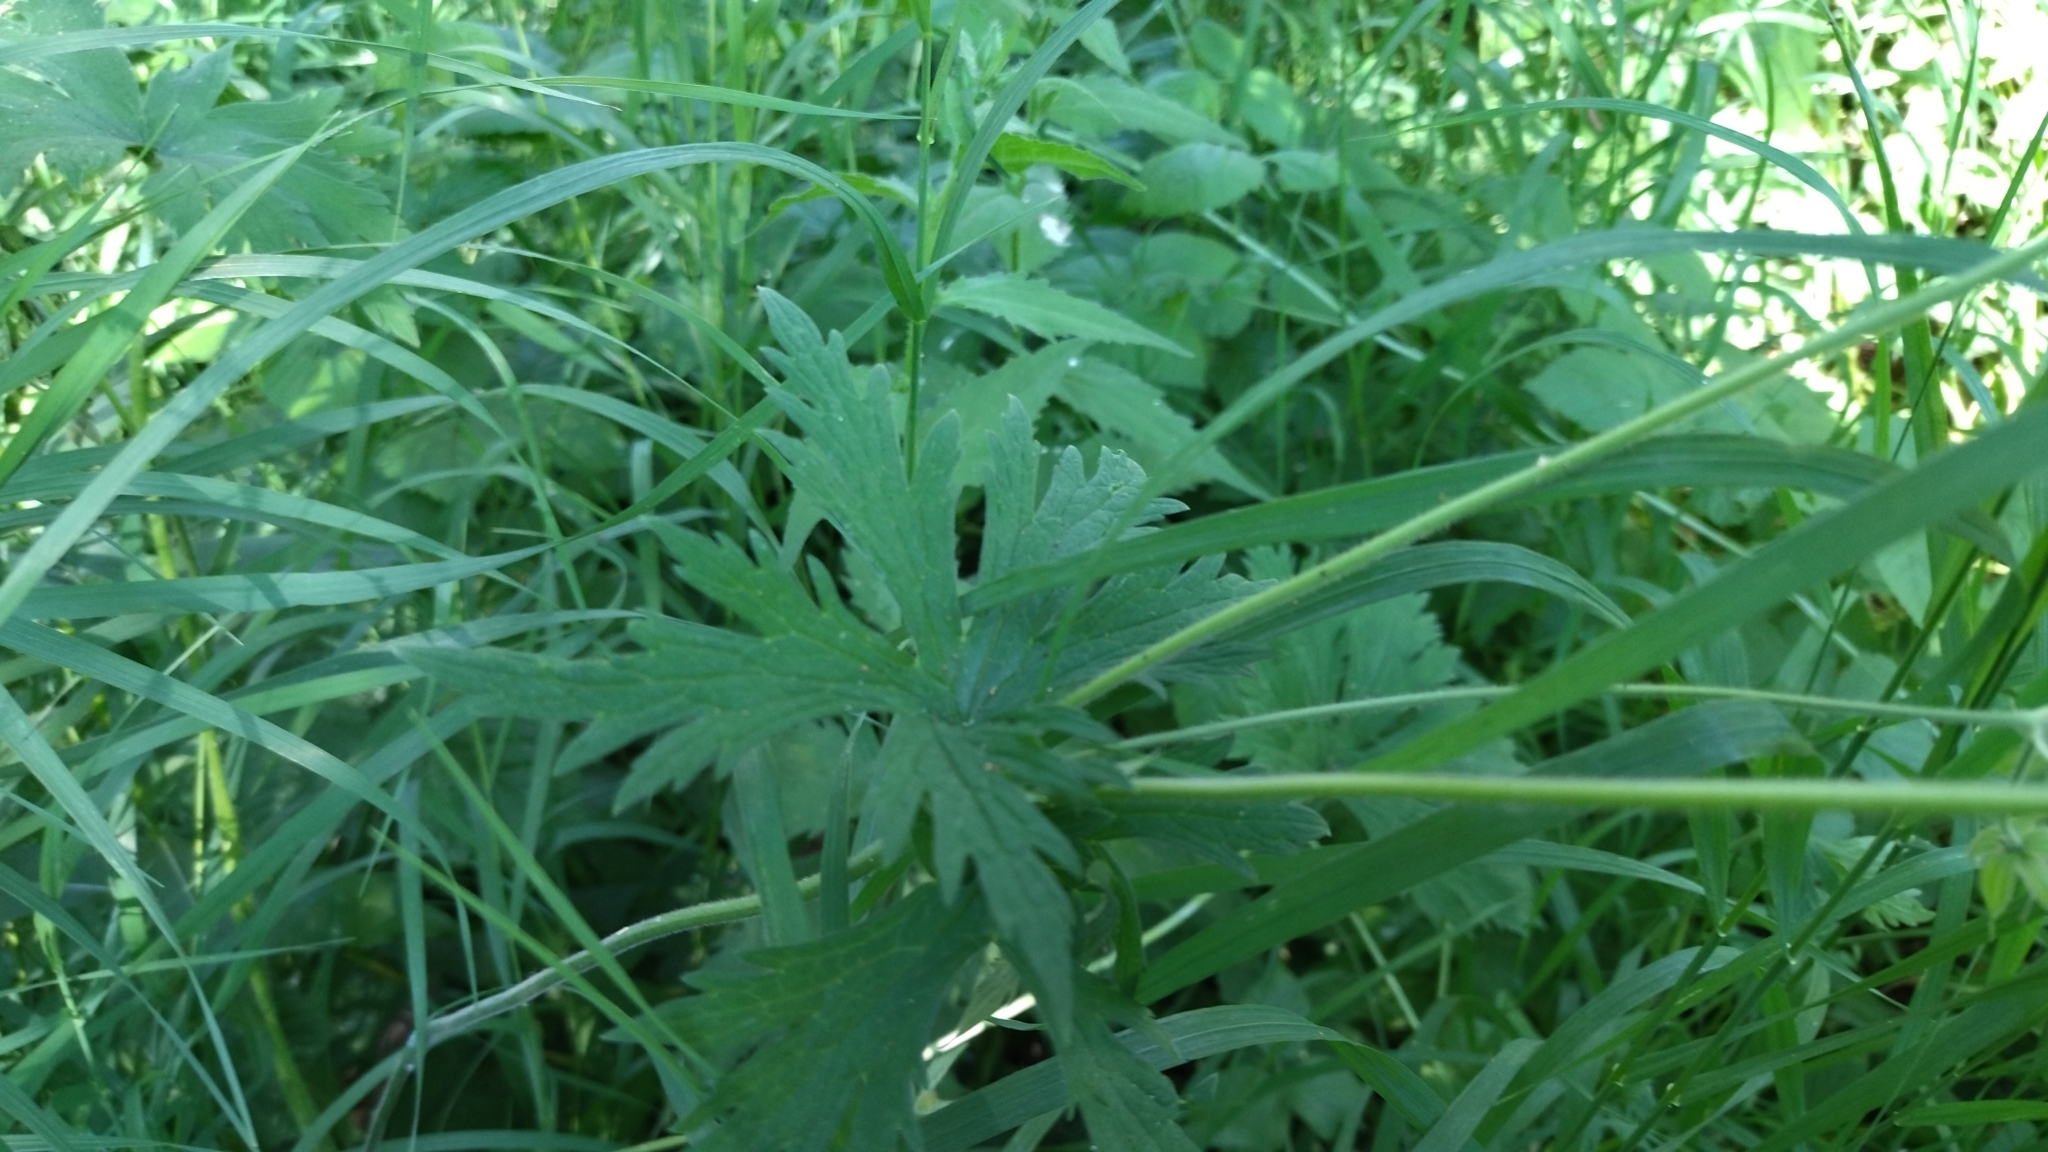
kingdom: Plantae
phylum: Tracheophyta
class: Magnoliopsida
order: Geraniales
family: Geraniaceae
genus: Geranium
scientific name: Geranium pratense
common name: Meadow crane's-bill
